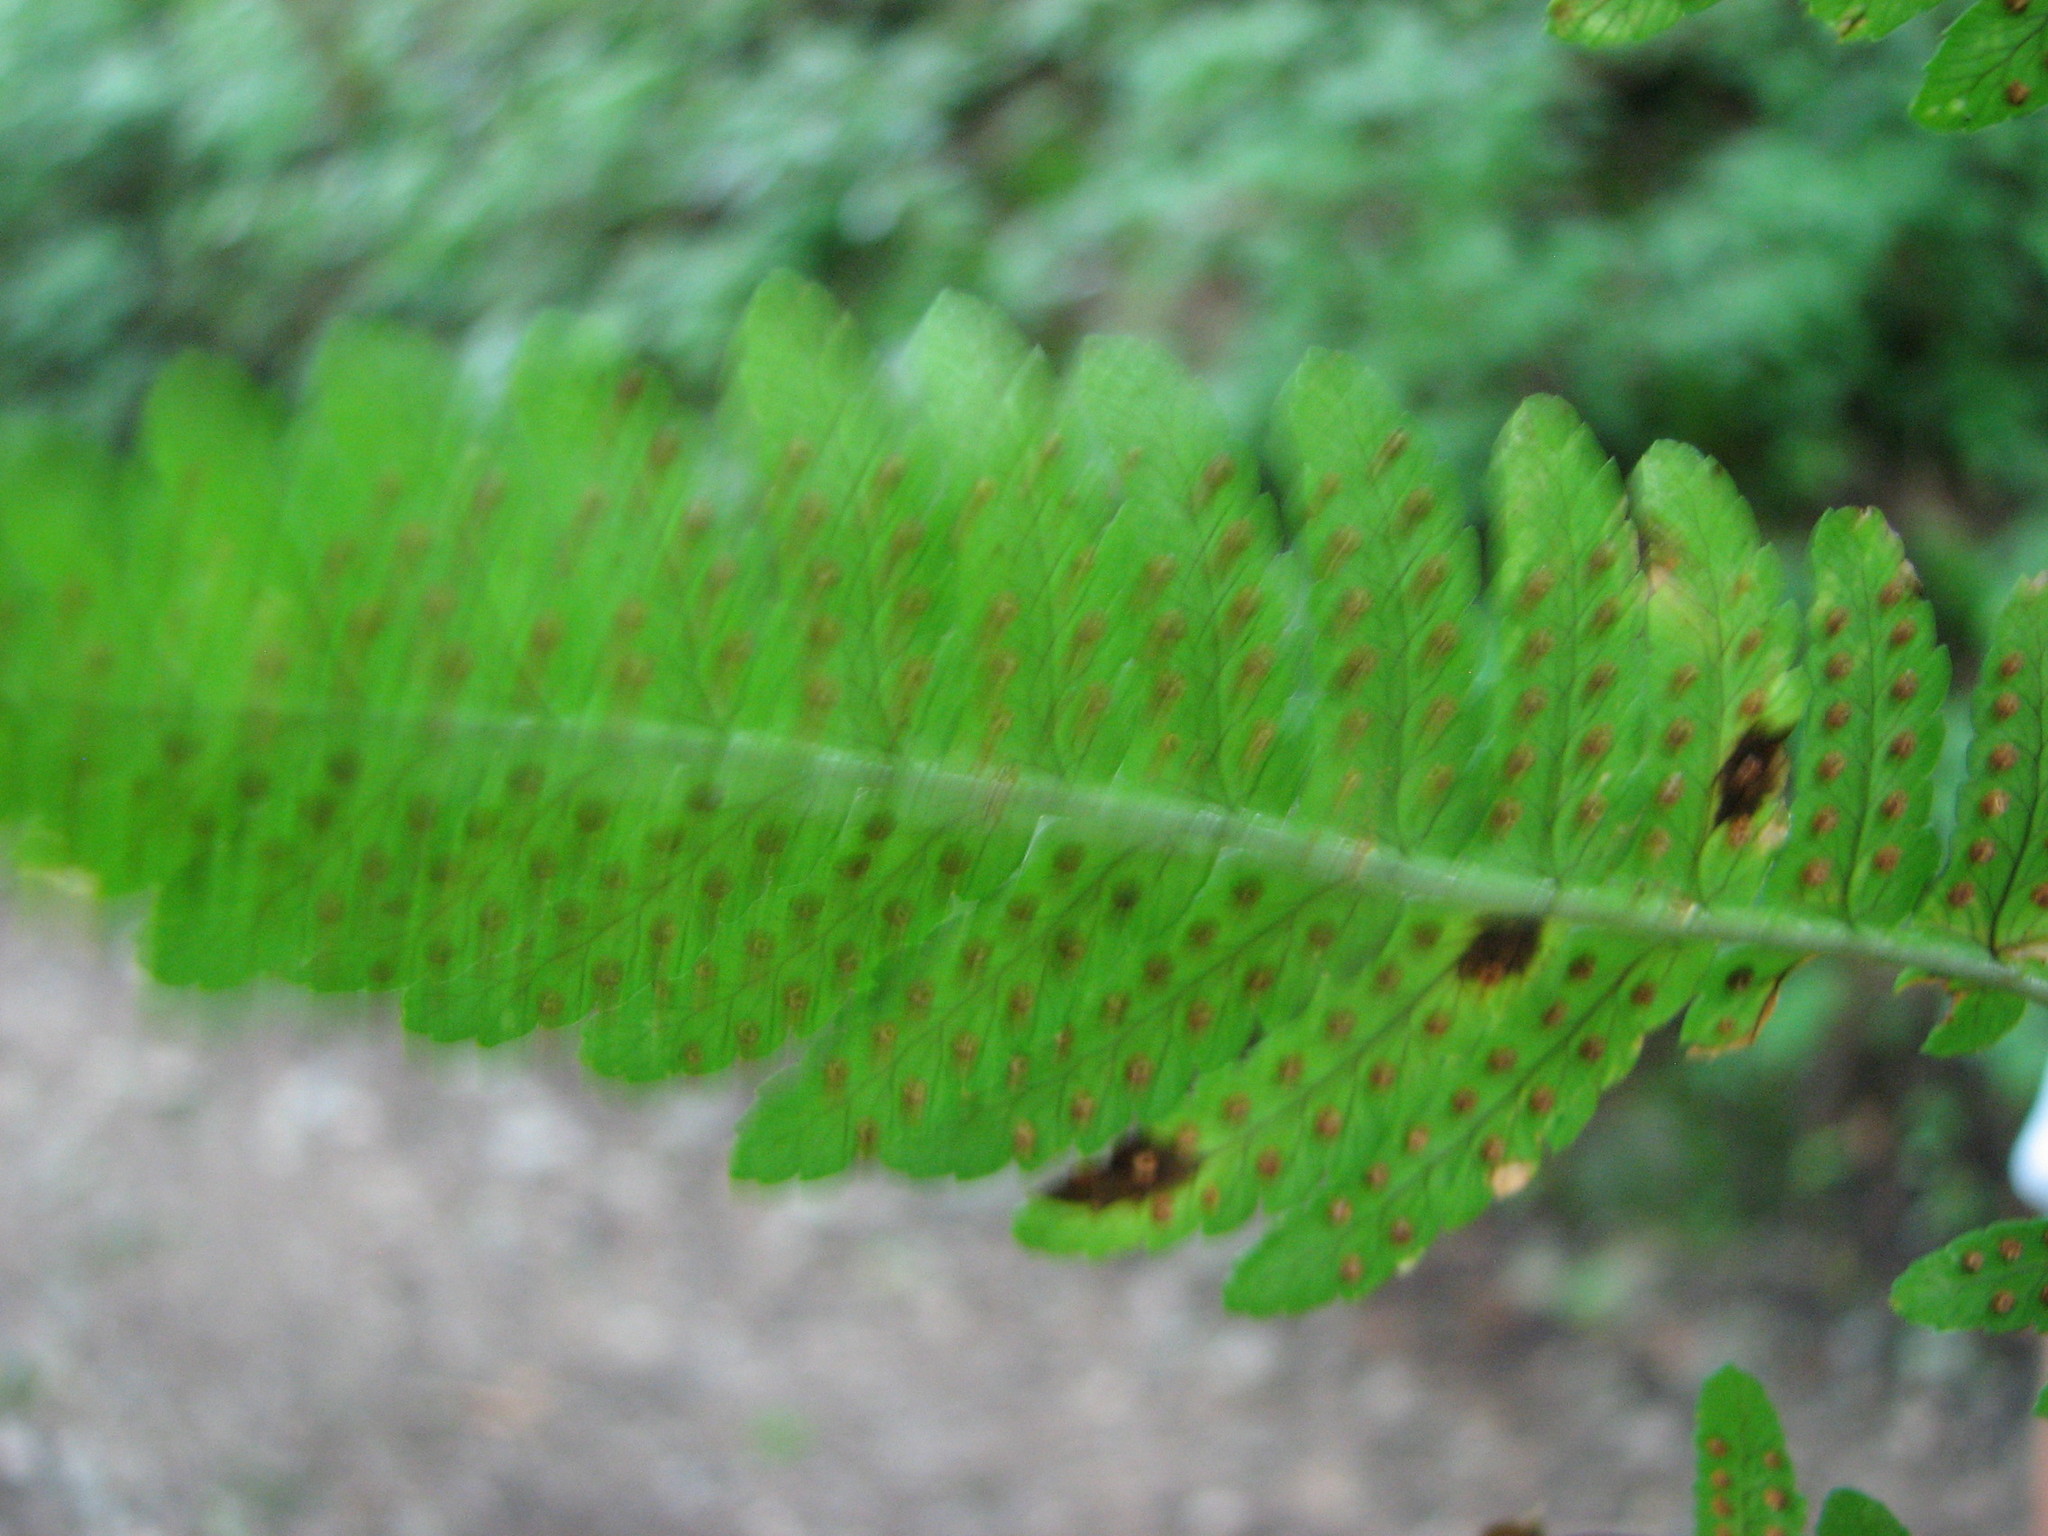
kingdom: Plantae
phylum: Tracheophyta
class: Polypodiopsida
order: Polypodiales
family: Dryopteridaceae
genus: Dryopteris
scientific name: Dryopteris neowherryi
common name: Wherry's wood fern
